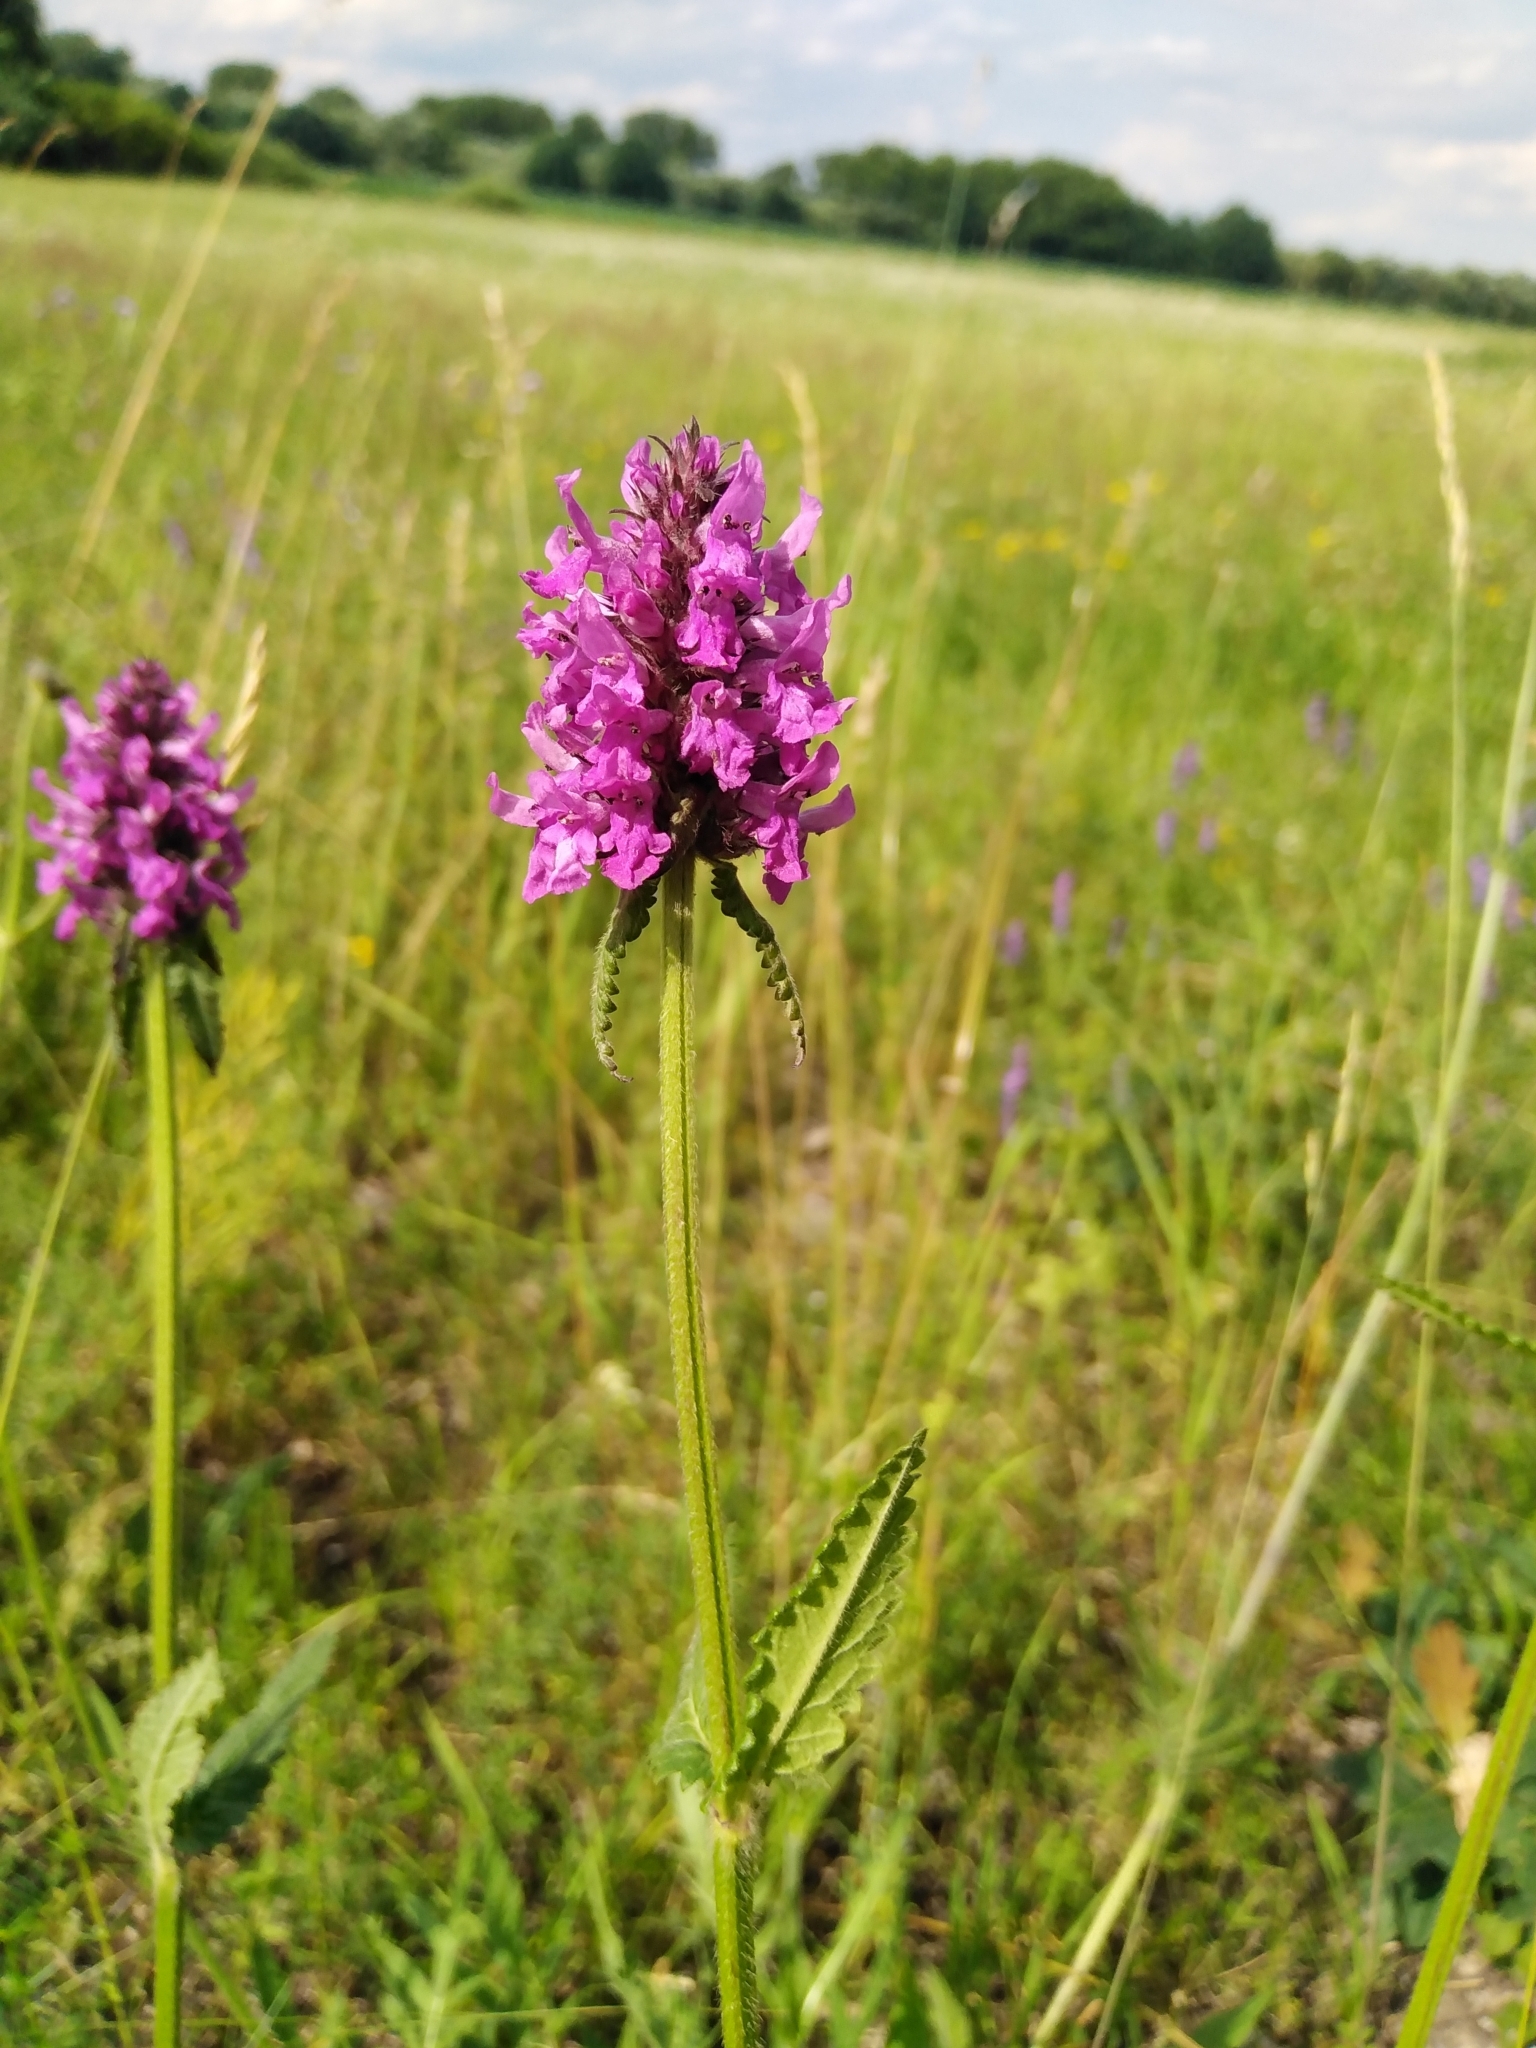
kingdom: Plantae
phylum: Tracheophyta
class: Magnoliopsida
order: Lamiales
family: Lamiaceae
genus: Betonica
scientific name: Betonica officinalis
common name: Bishop's-wort
